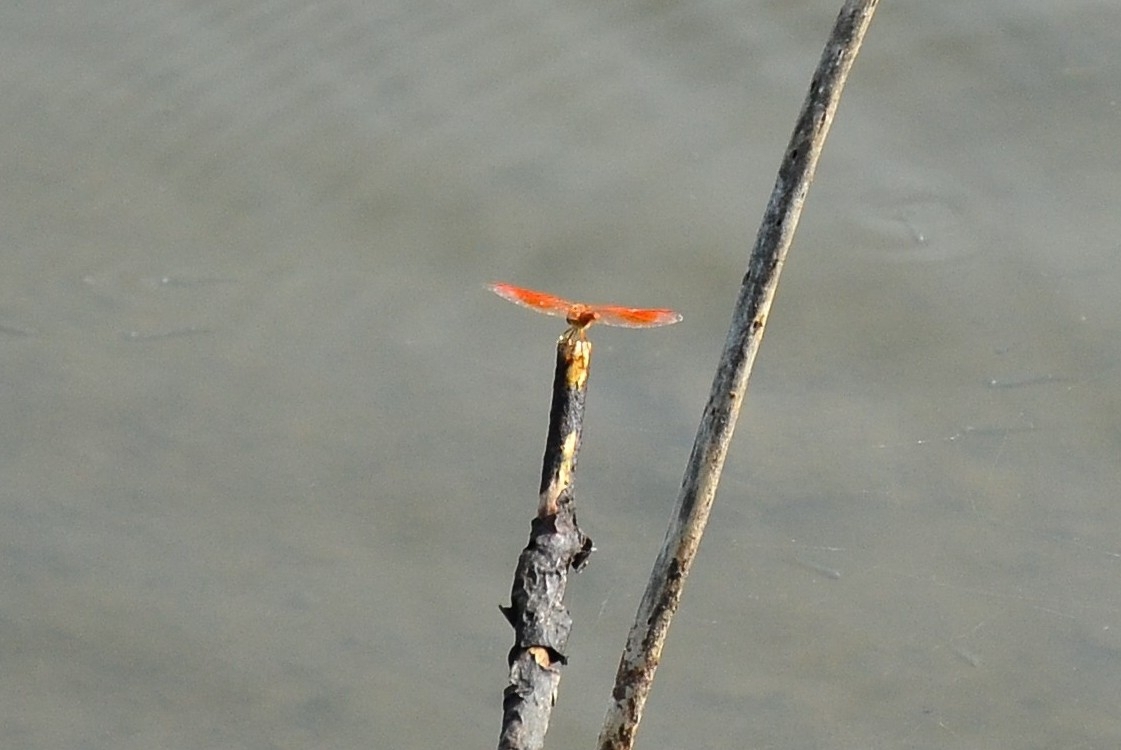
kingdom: Animalia
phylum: Arthropoda
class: Insecta
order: Odonata
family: Libellulidae
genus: Brachythemis
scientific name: Brachythemis contaminata
